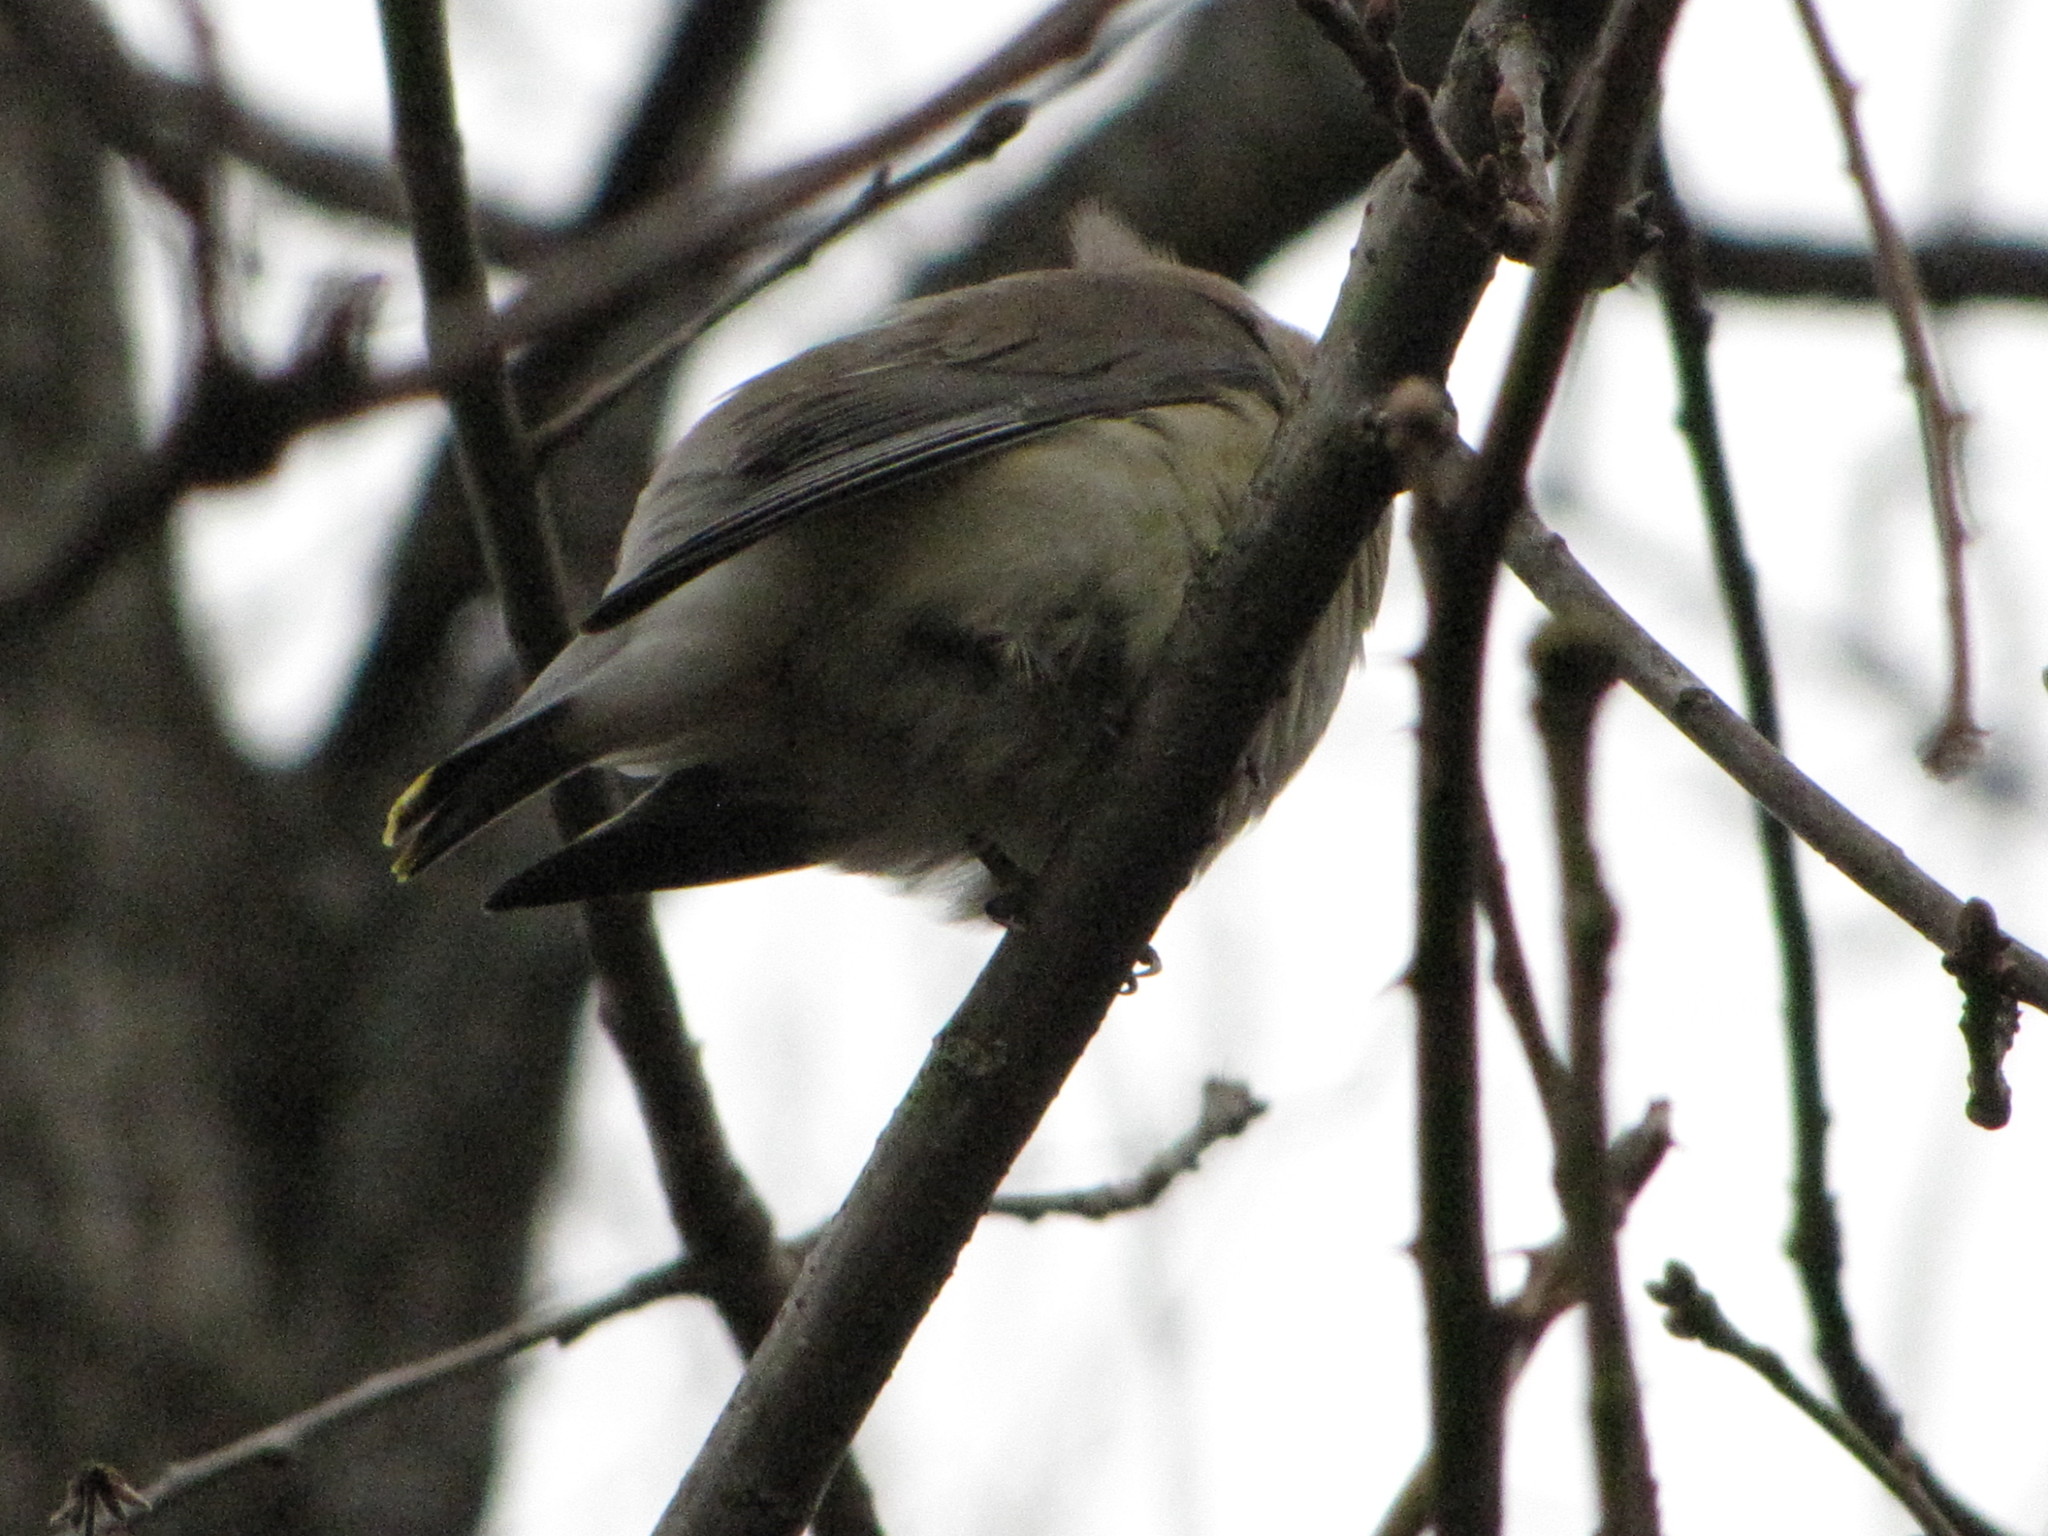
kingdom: Animalia
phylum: Chordata
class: Aves
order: Passeriformes
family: Bombycillidae
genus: Bombycilla
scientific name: Bombycilla cedrorum
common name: Cedar waxwing
